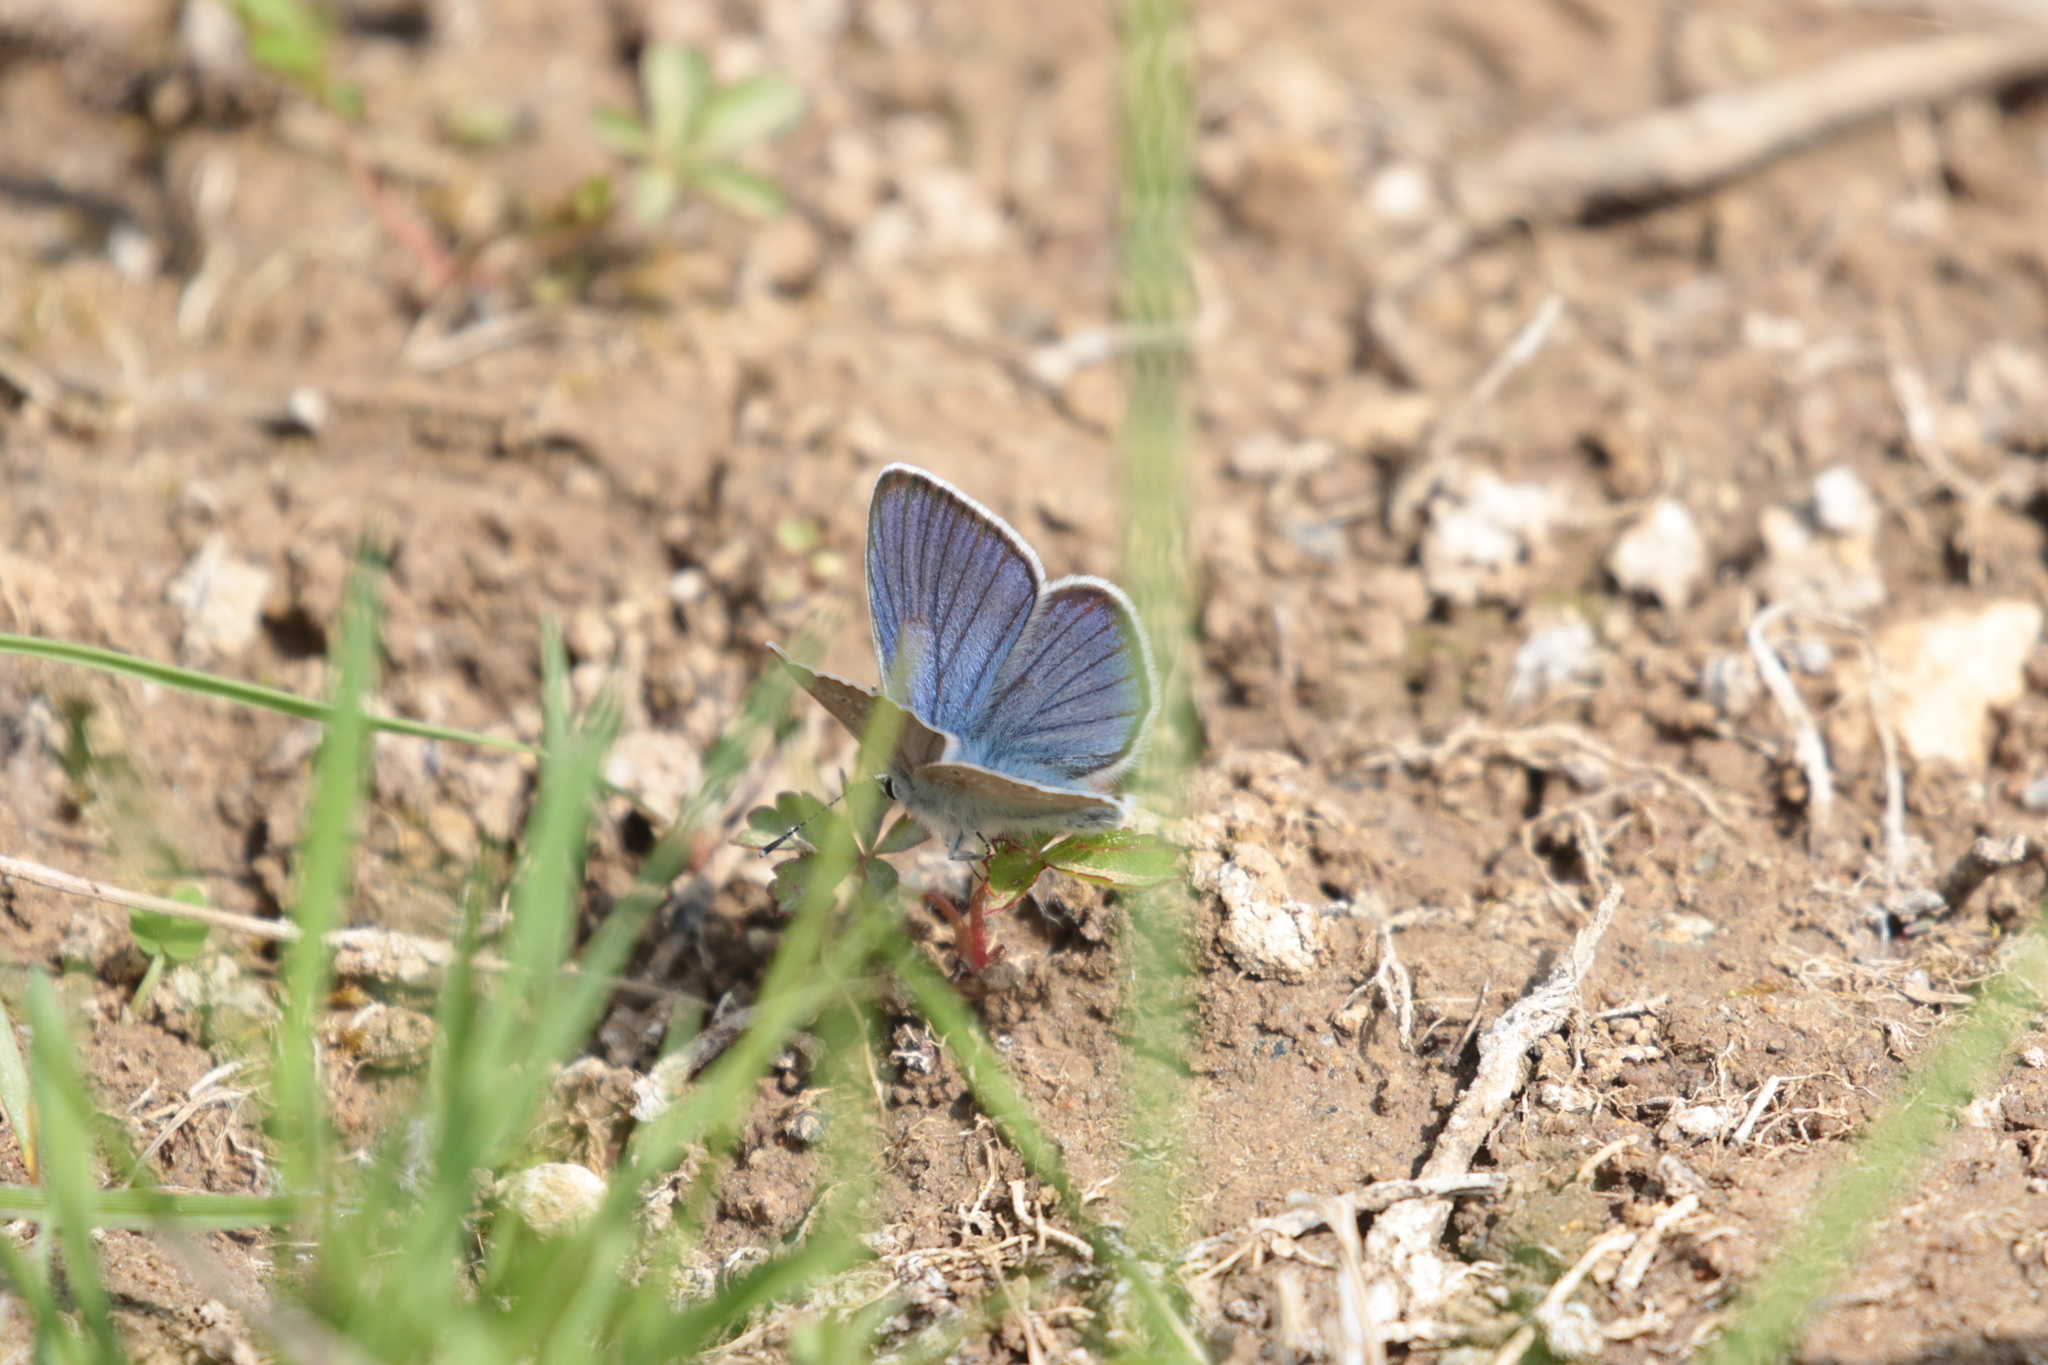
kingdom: Animalia
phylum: Arthropoda
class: Insecta
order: Lepidoptera
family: Lycaenidae
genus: Cyaniris
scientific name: Cyaniris semiargus
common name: Mazarine blue
